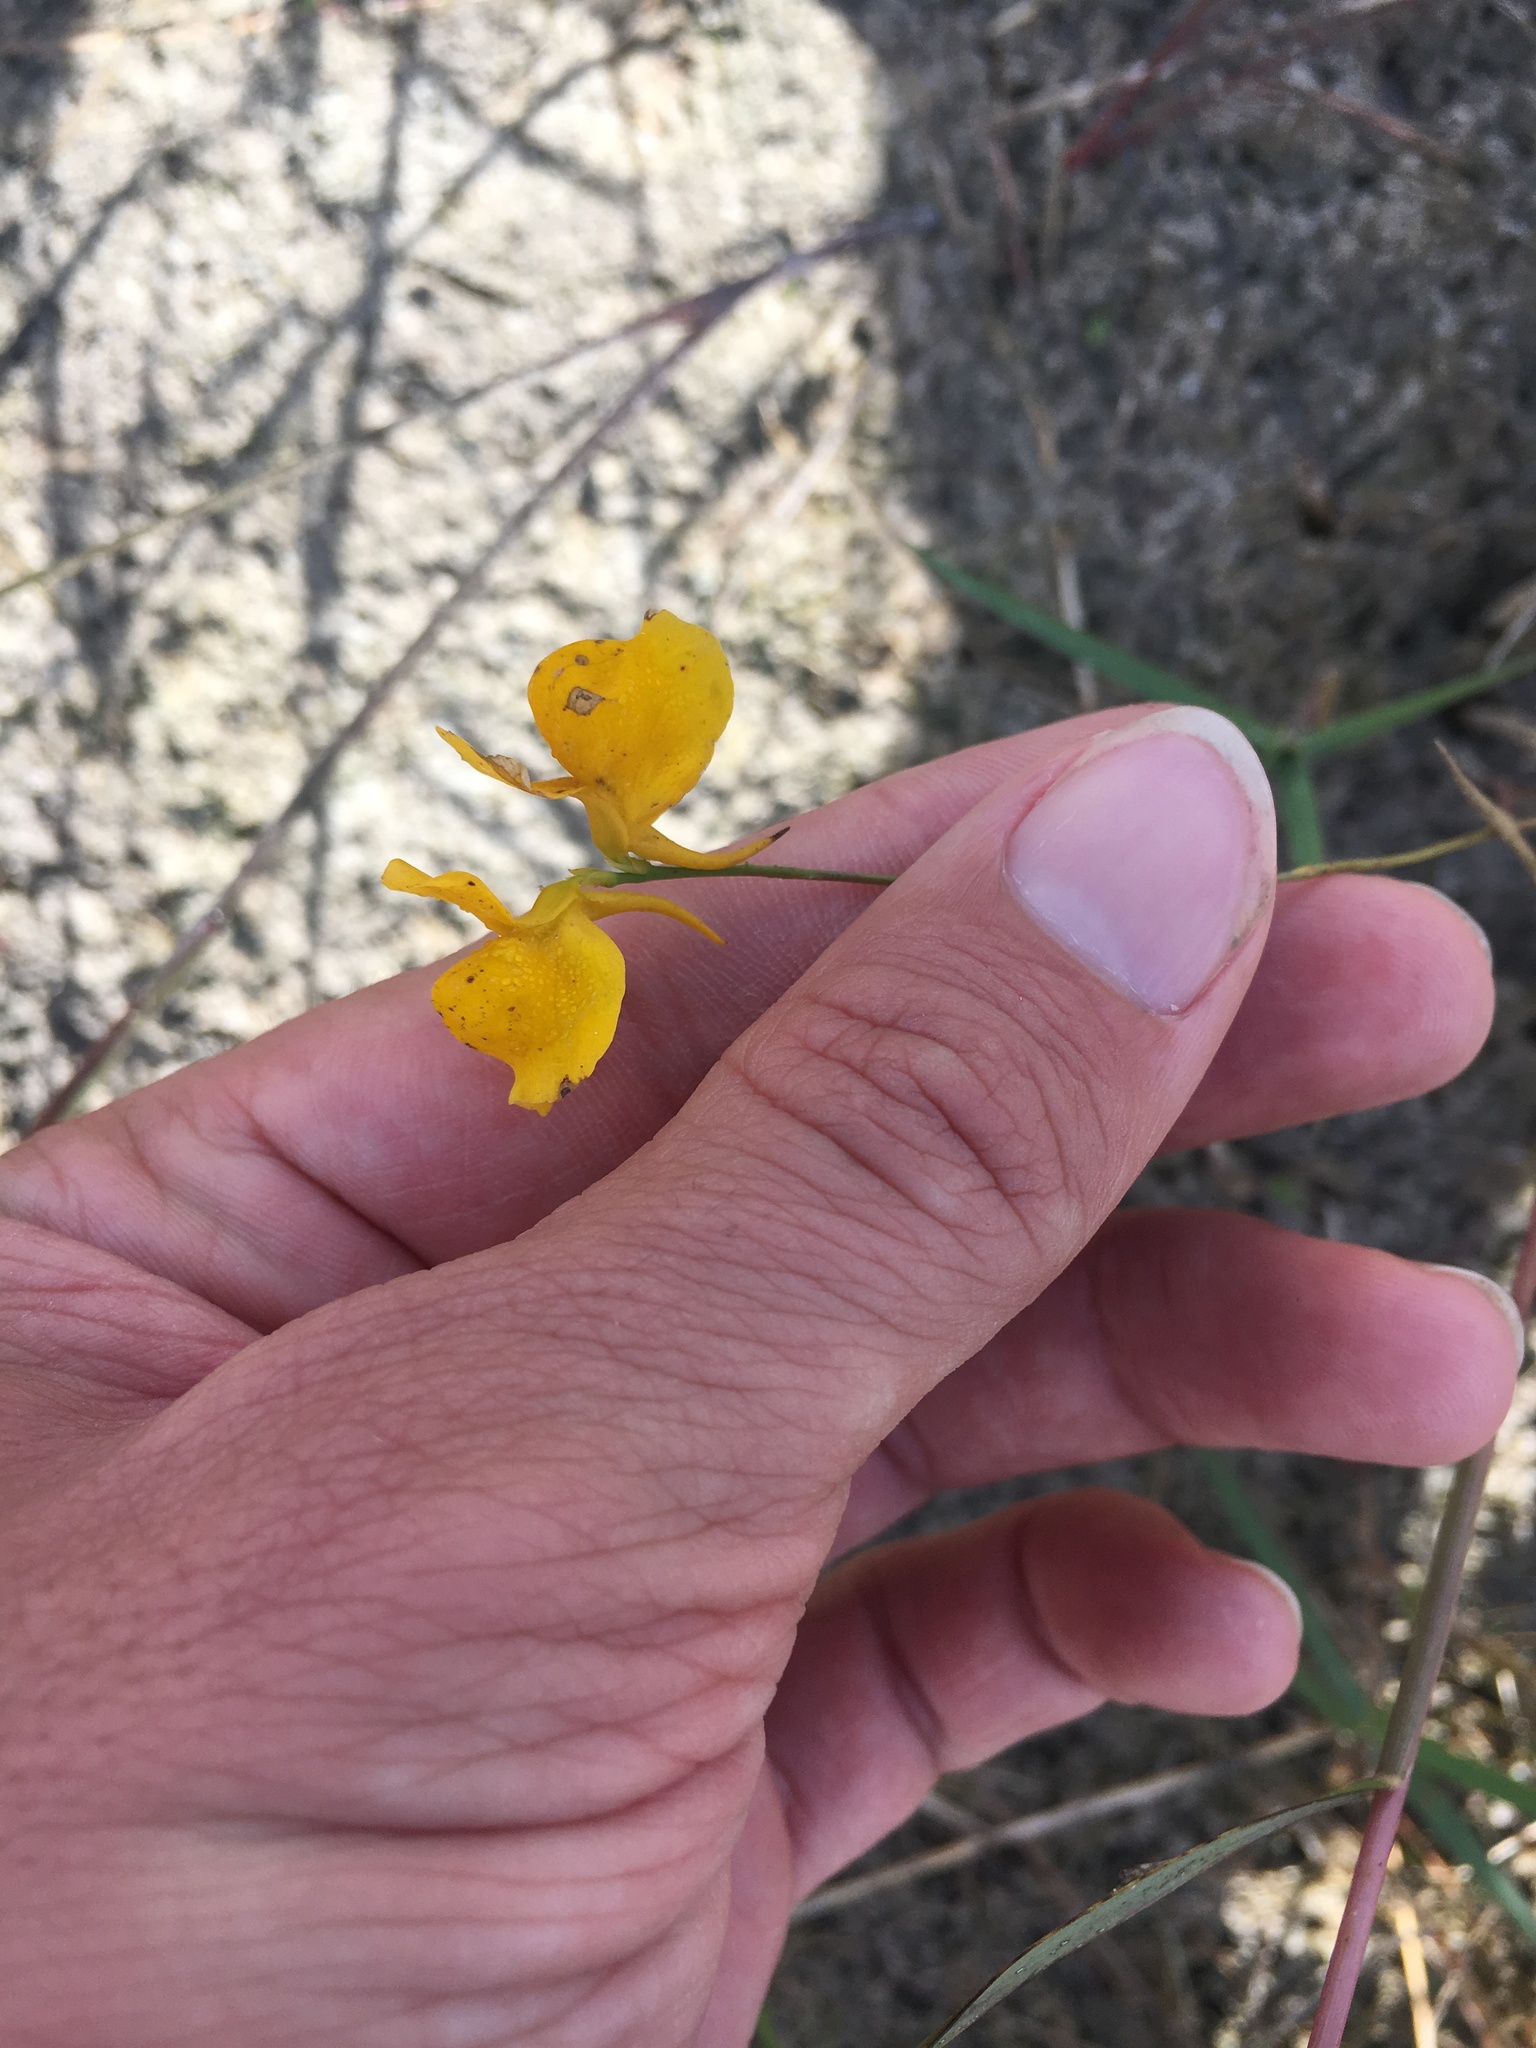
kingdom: Plantae
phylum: Tracheophyta
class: Magnoliopsida
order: Lamiales
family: Lentibulariaceae
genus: Utricularia
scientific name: Utricularia cornuta
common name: Horned bladderwort
